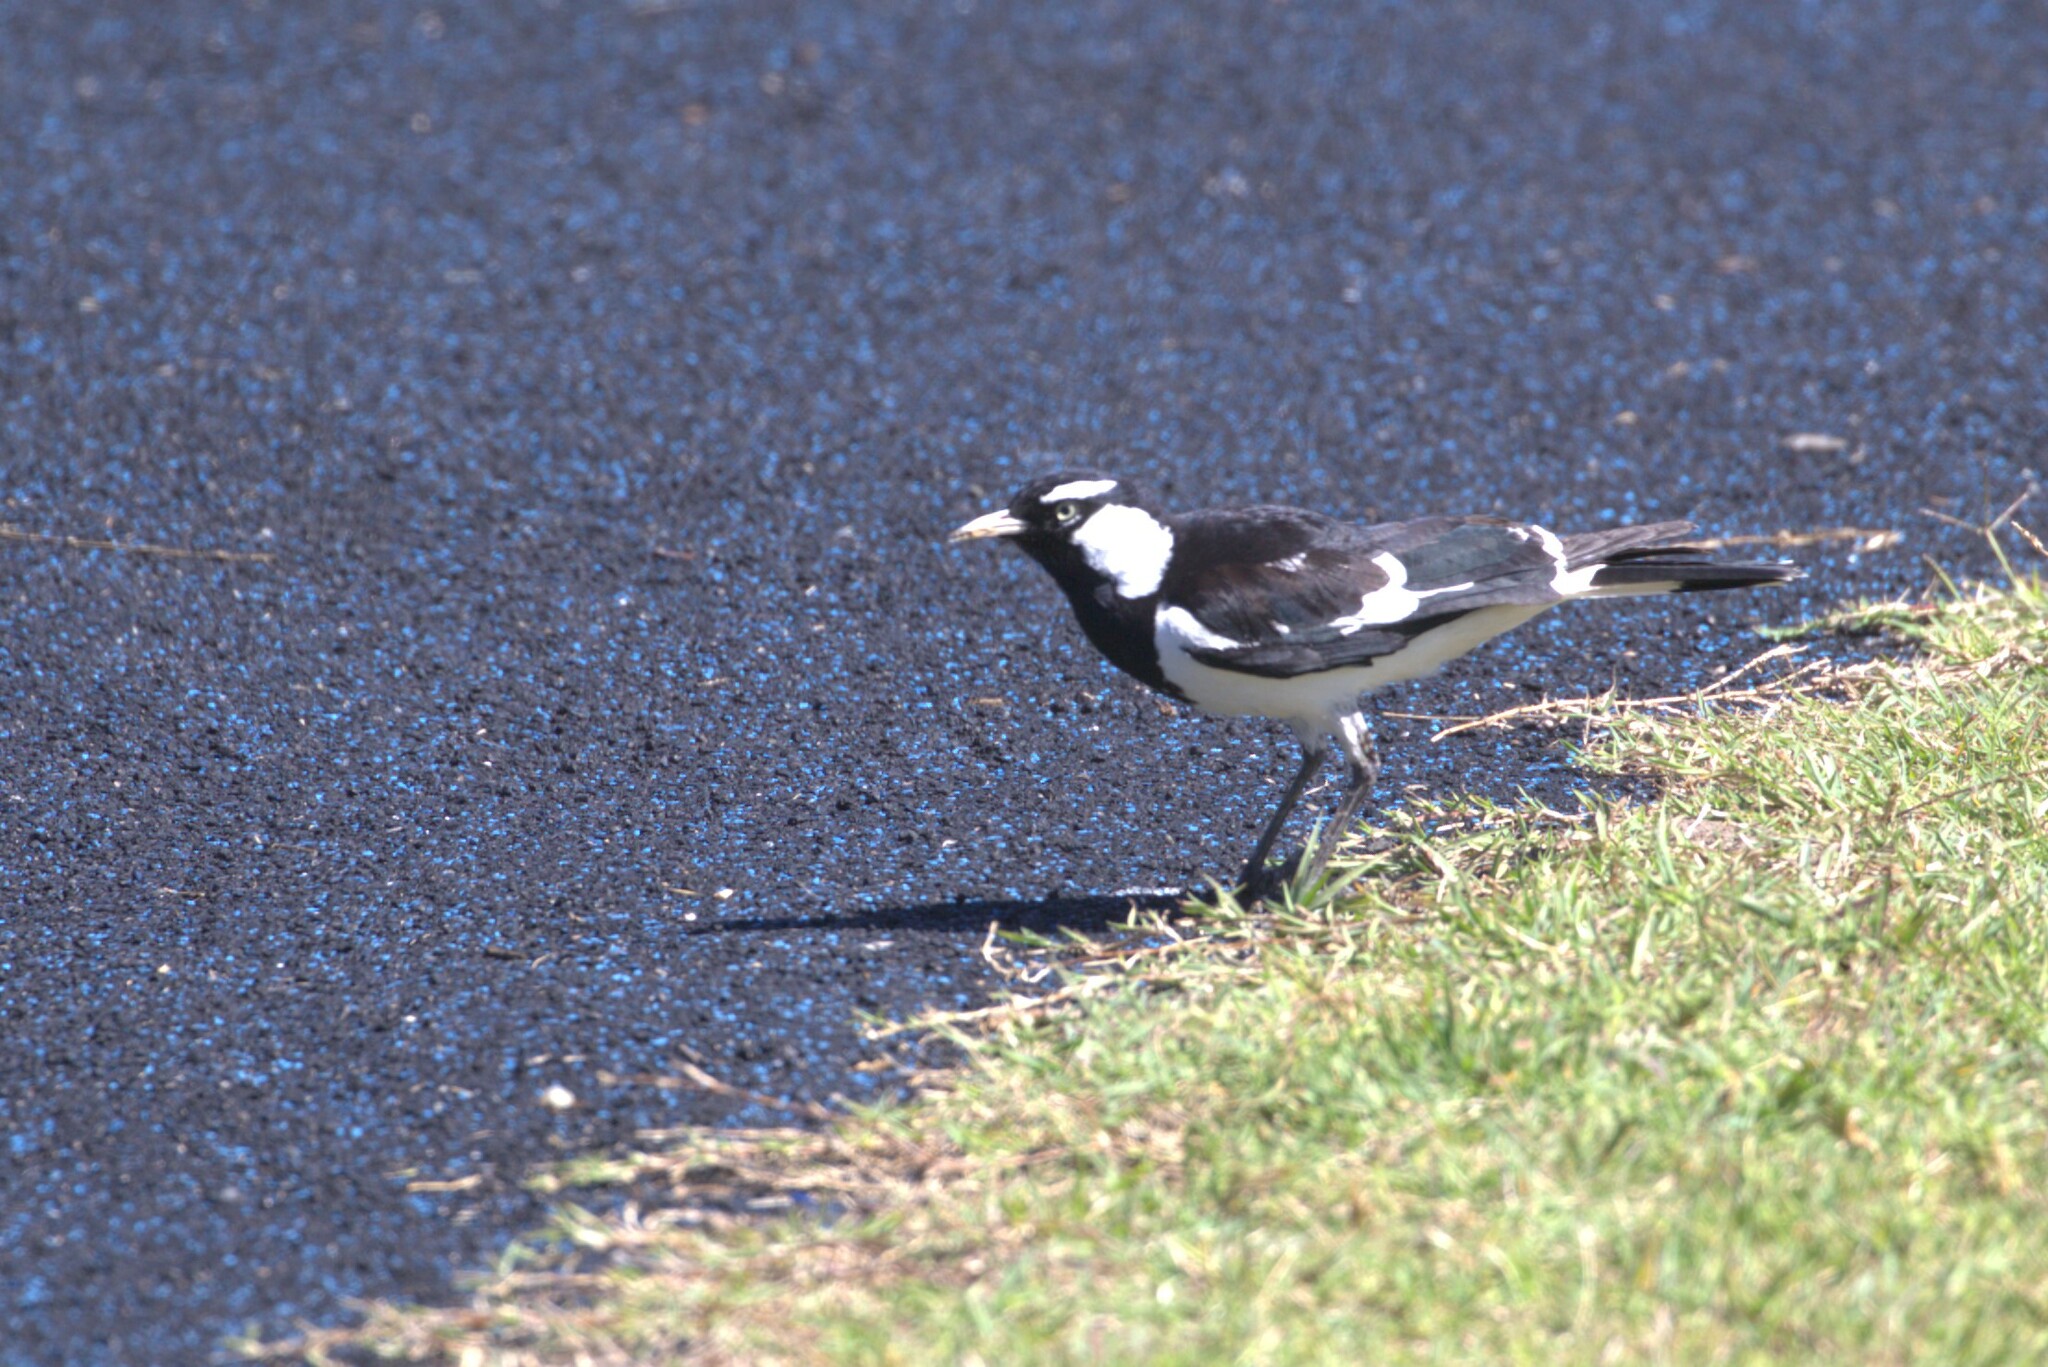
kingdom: Animalia
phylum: Chordata
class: Aves
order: Passeriformes
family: Monarchidae
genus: Grallina
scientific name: Grallina cyanoleuca
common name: Magpie-lark
